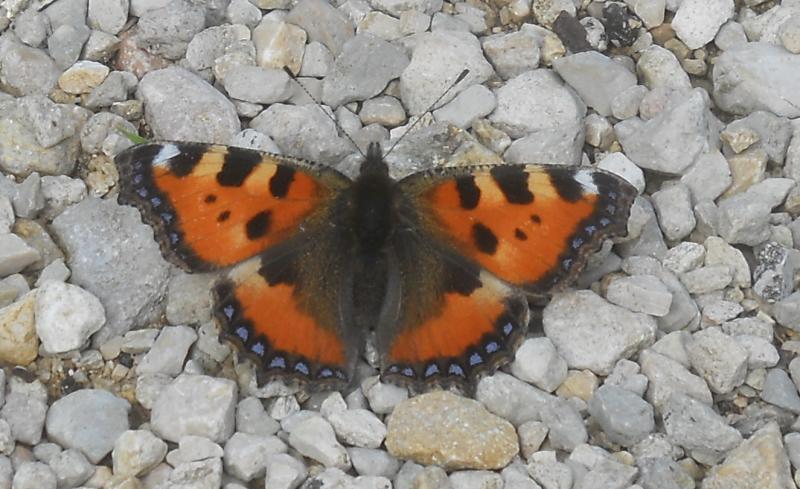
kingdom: Animalia
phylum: Arthropoda
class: Insecta
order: Lepidoptera
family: Nymphalidae
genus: Aglais
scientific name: Aglais urticae
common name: Small tortoiseshell
